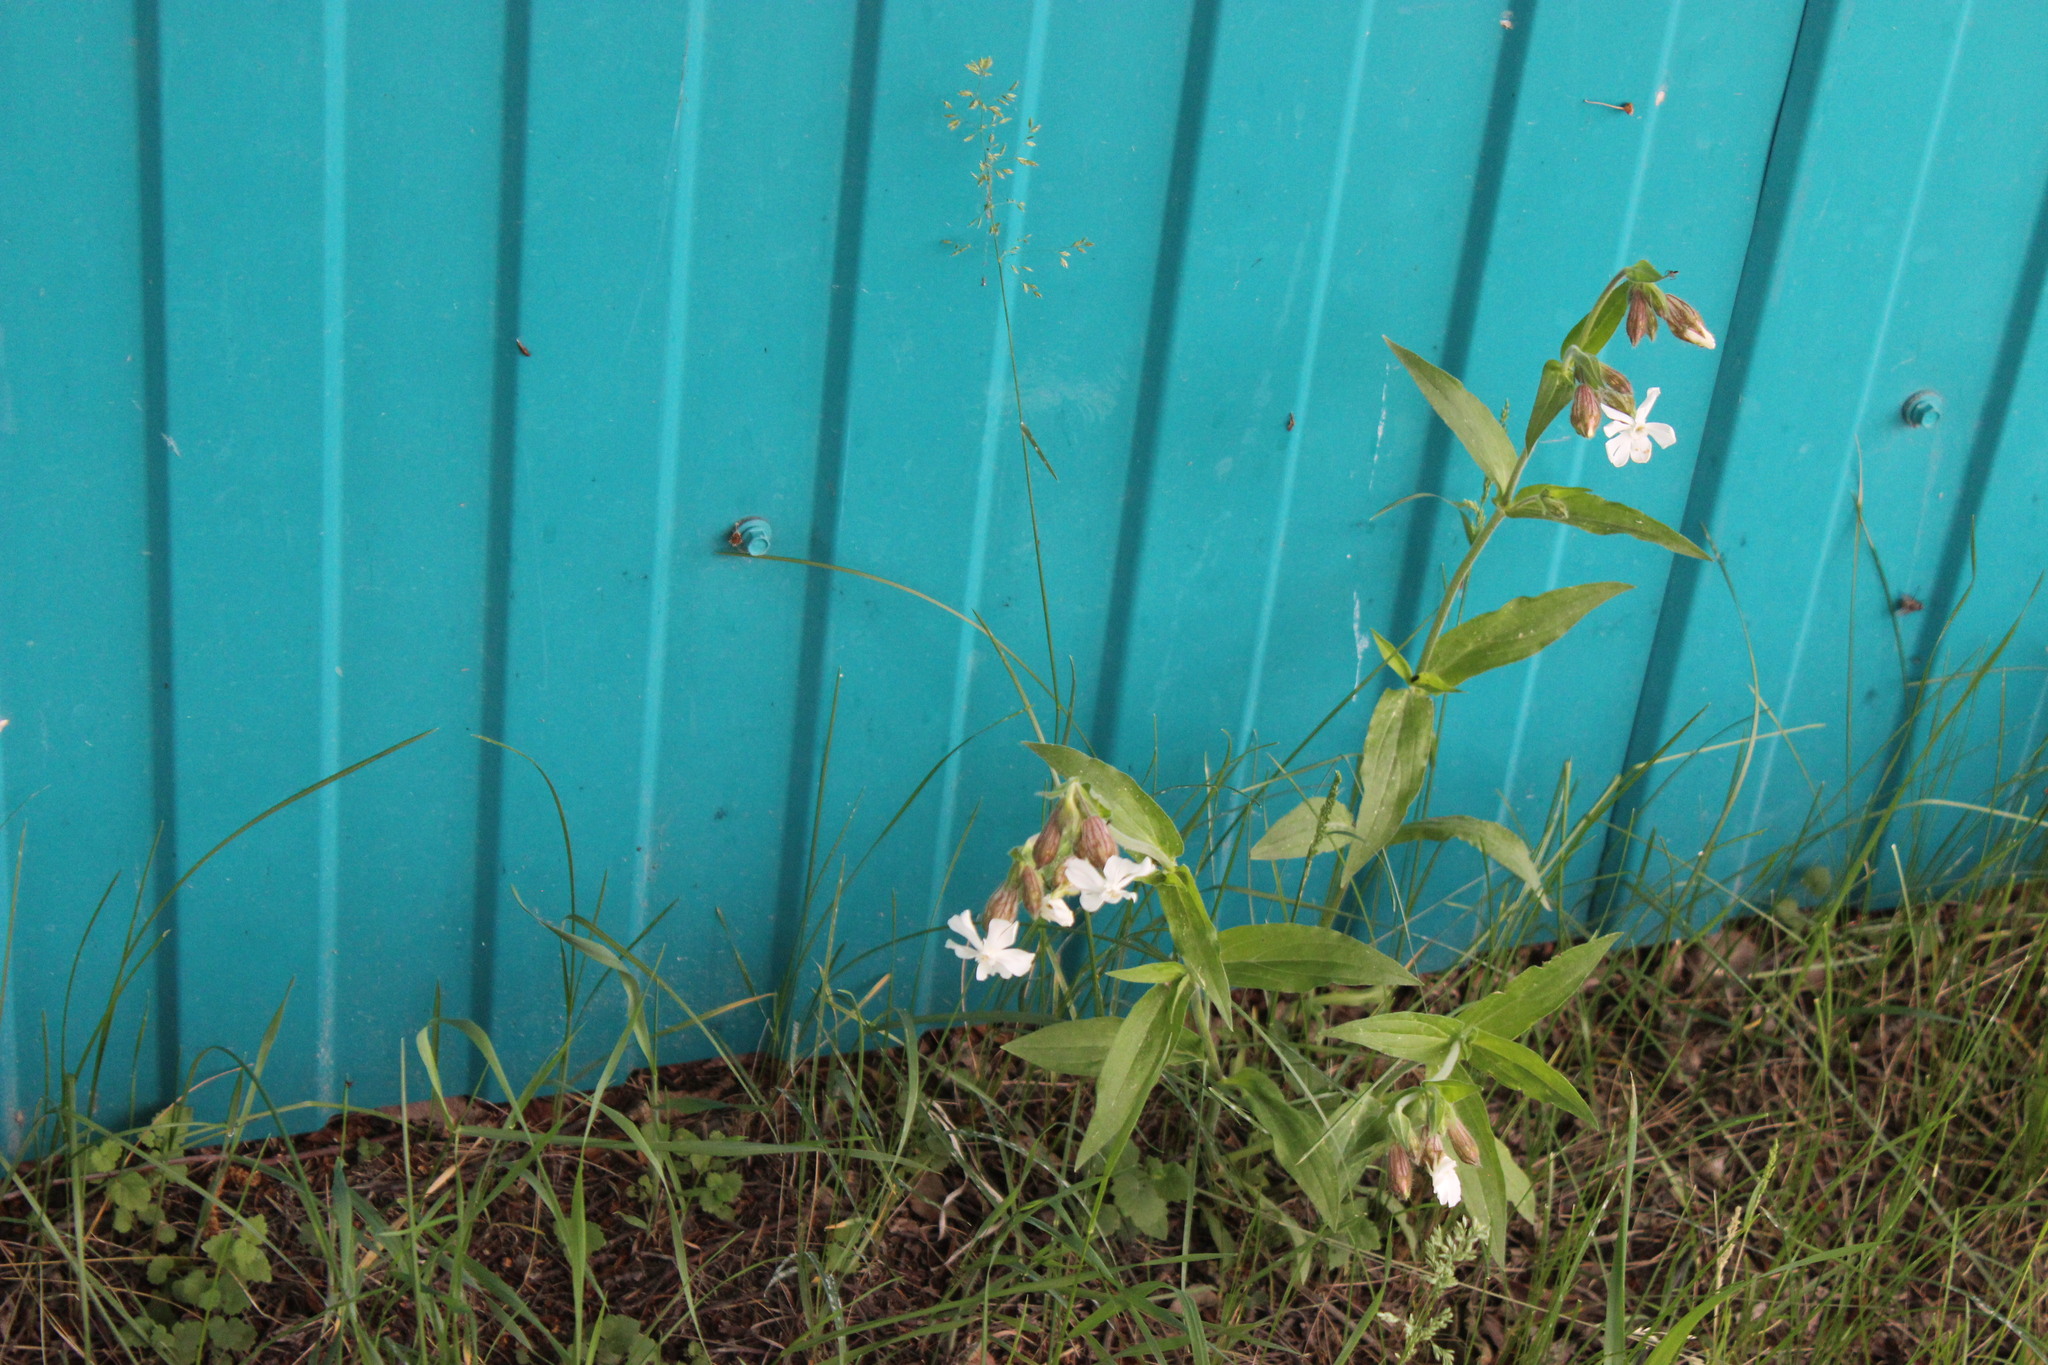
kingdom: Plantae
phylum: Tracheophyta
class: Magnoliopsida
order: Caryophyllales
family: Caryophyllaceae
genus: Silene
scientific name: Silene latifolia
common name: White campion
